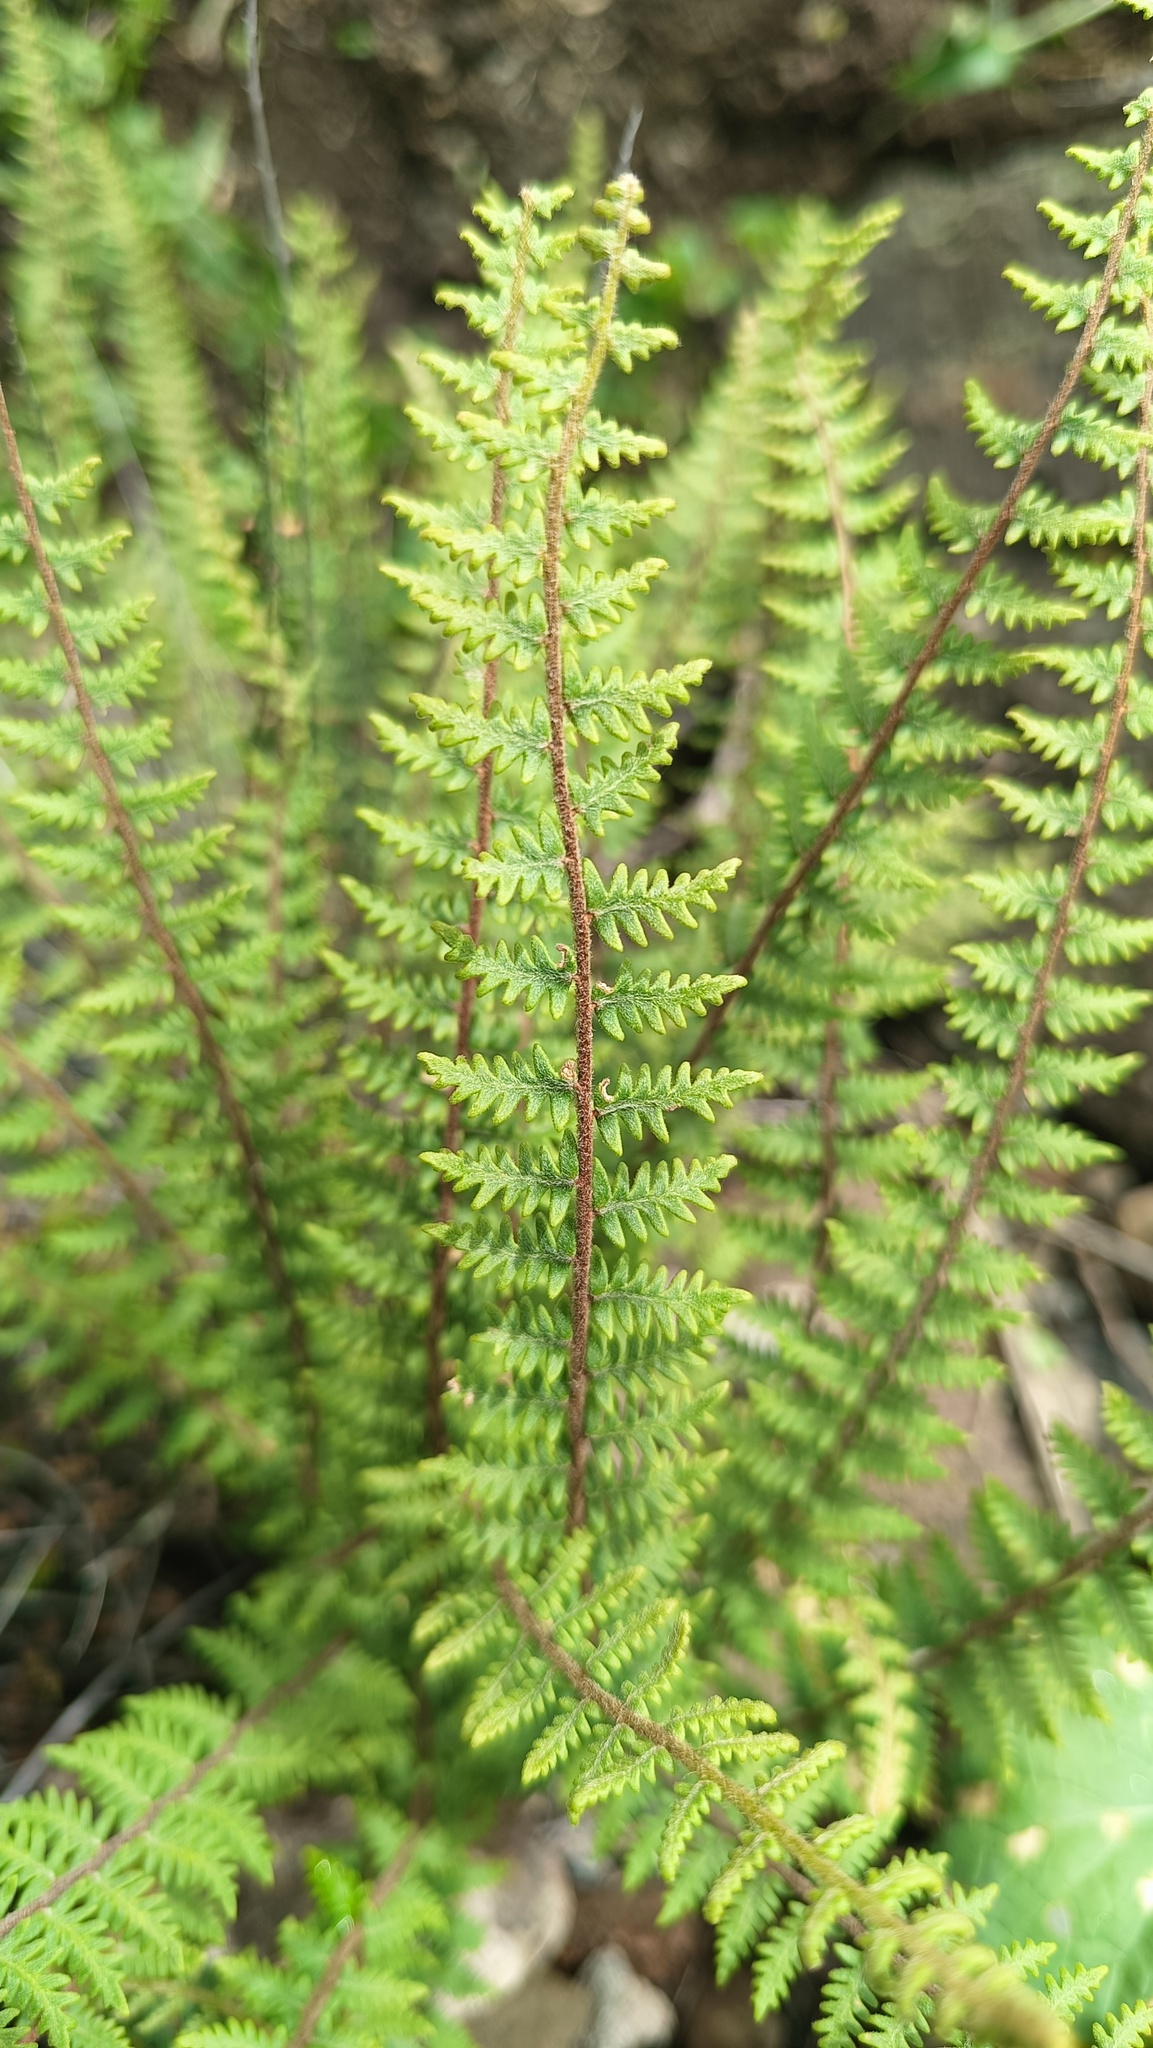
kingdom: Plantae
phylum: Tracheophyta
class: Polypodiopsida
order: Polypodiales
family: Pteridaceae
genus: Myriopteris
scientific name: Myriopteris aurea
